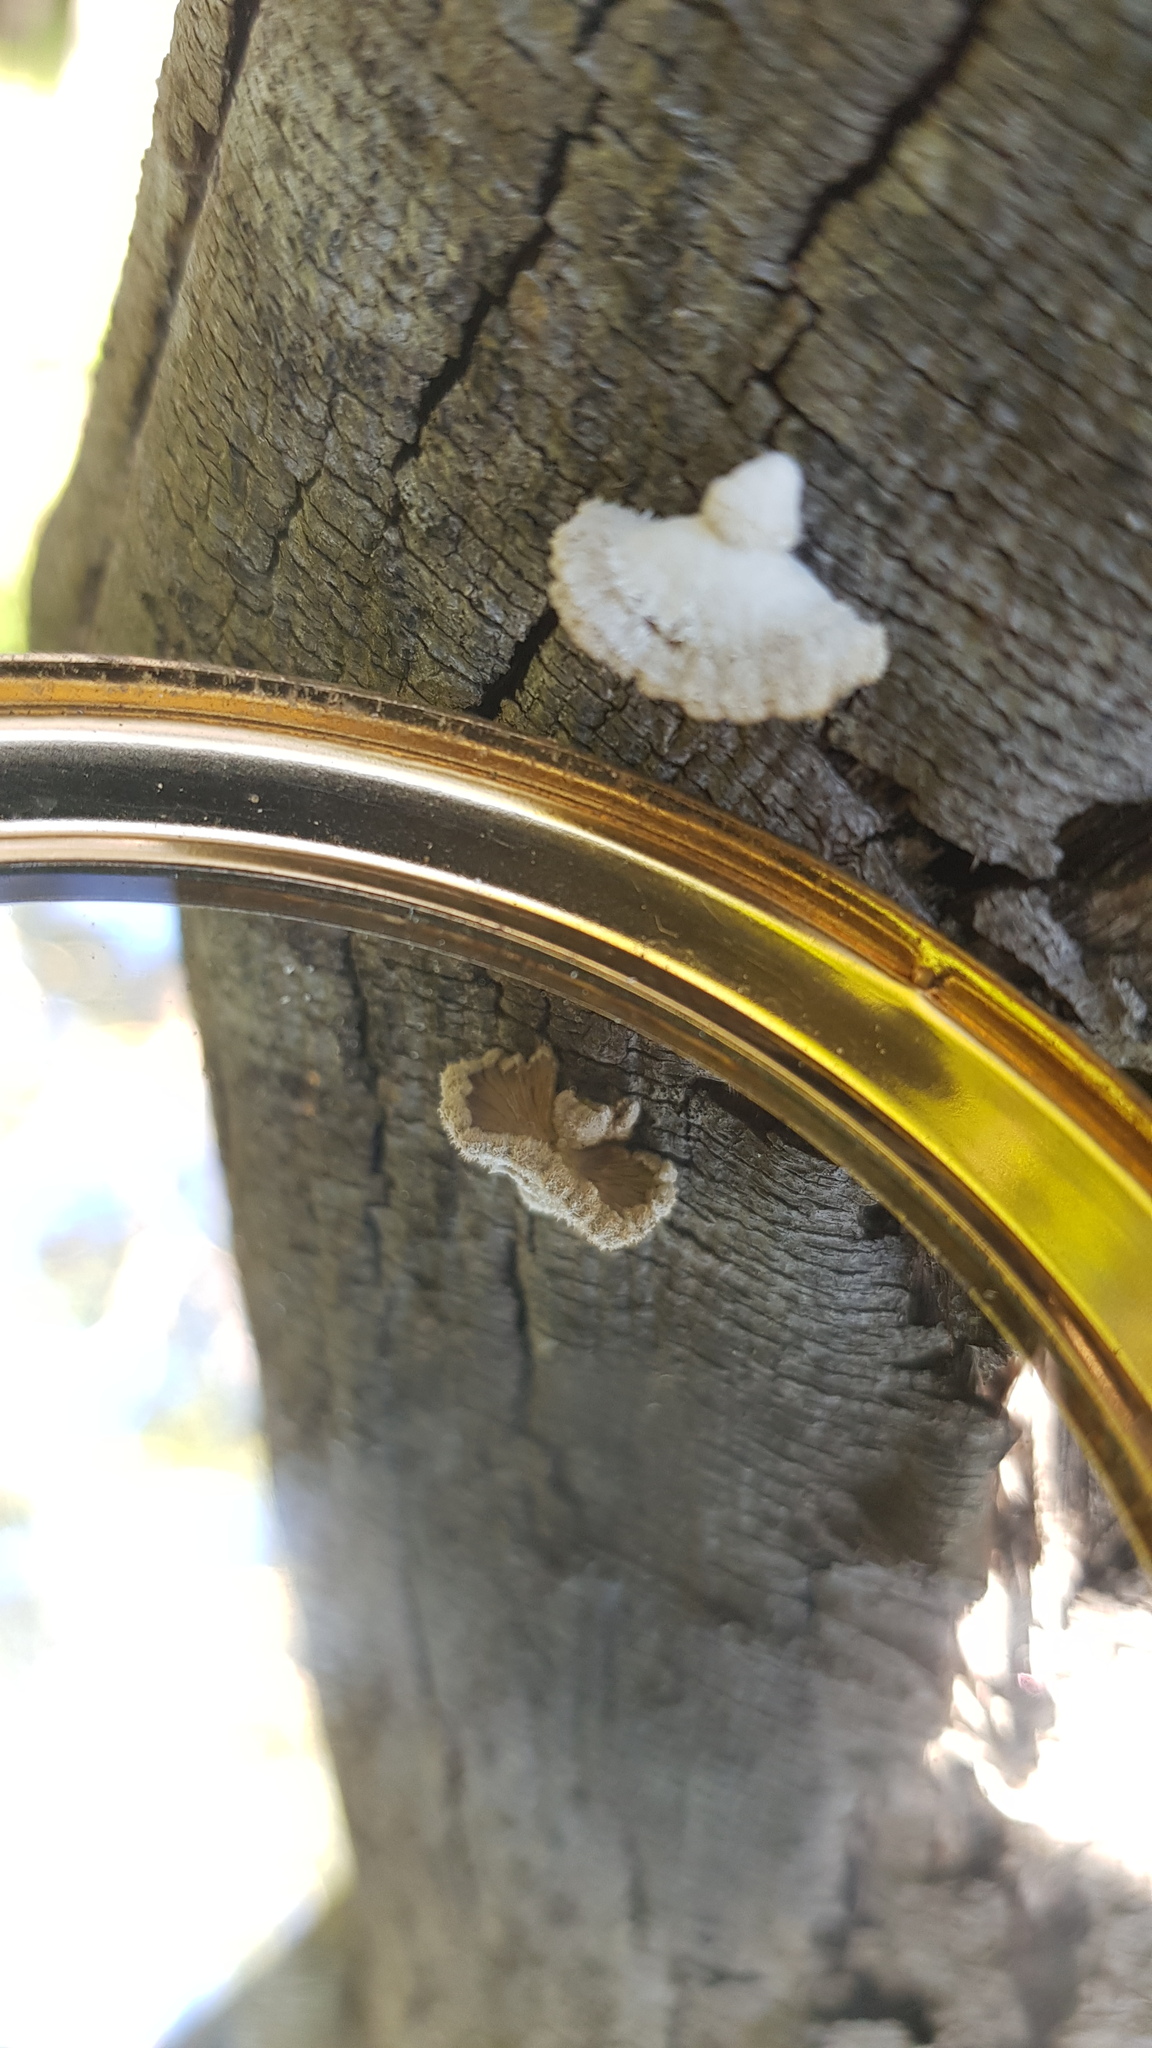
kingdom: Fungi
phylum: Basidiomycota
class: Agaricomycetes
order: Agaricales
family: Schizophyllaceae
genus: Schizophyllum
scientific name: Schizophyllum commune
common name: Common porecrust
